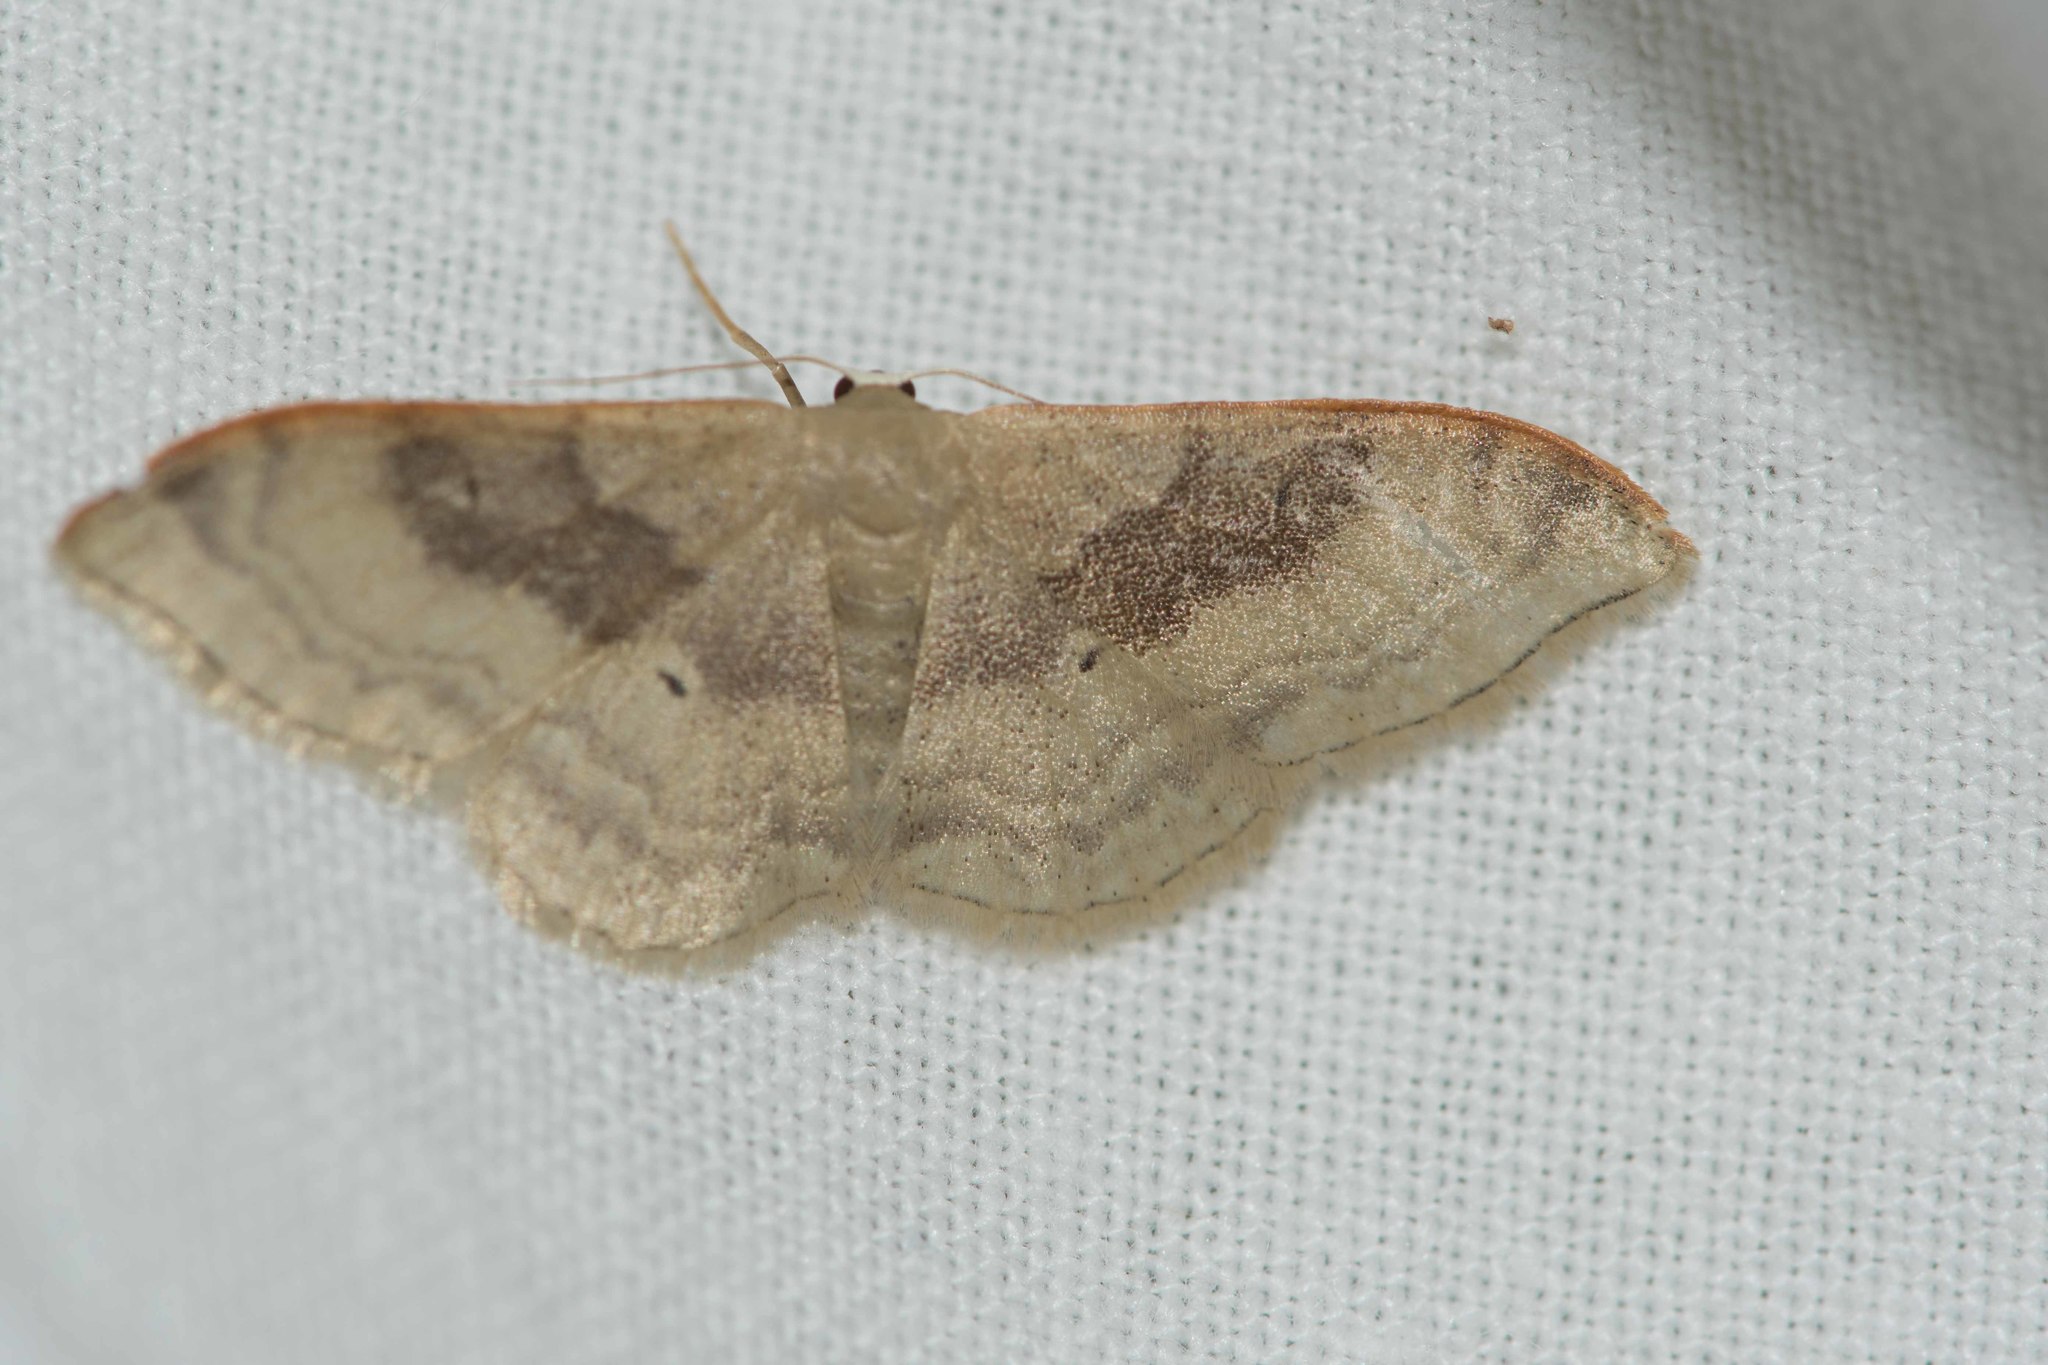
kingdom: Animalia
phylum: Arthropoda
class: Insecta
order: Lepidoptera
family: Geometridae
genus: Idaea
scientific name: Idaea degeneraria
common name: Portland ribbon wave
